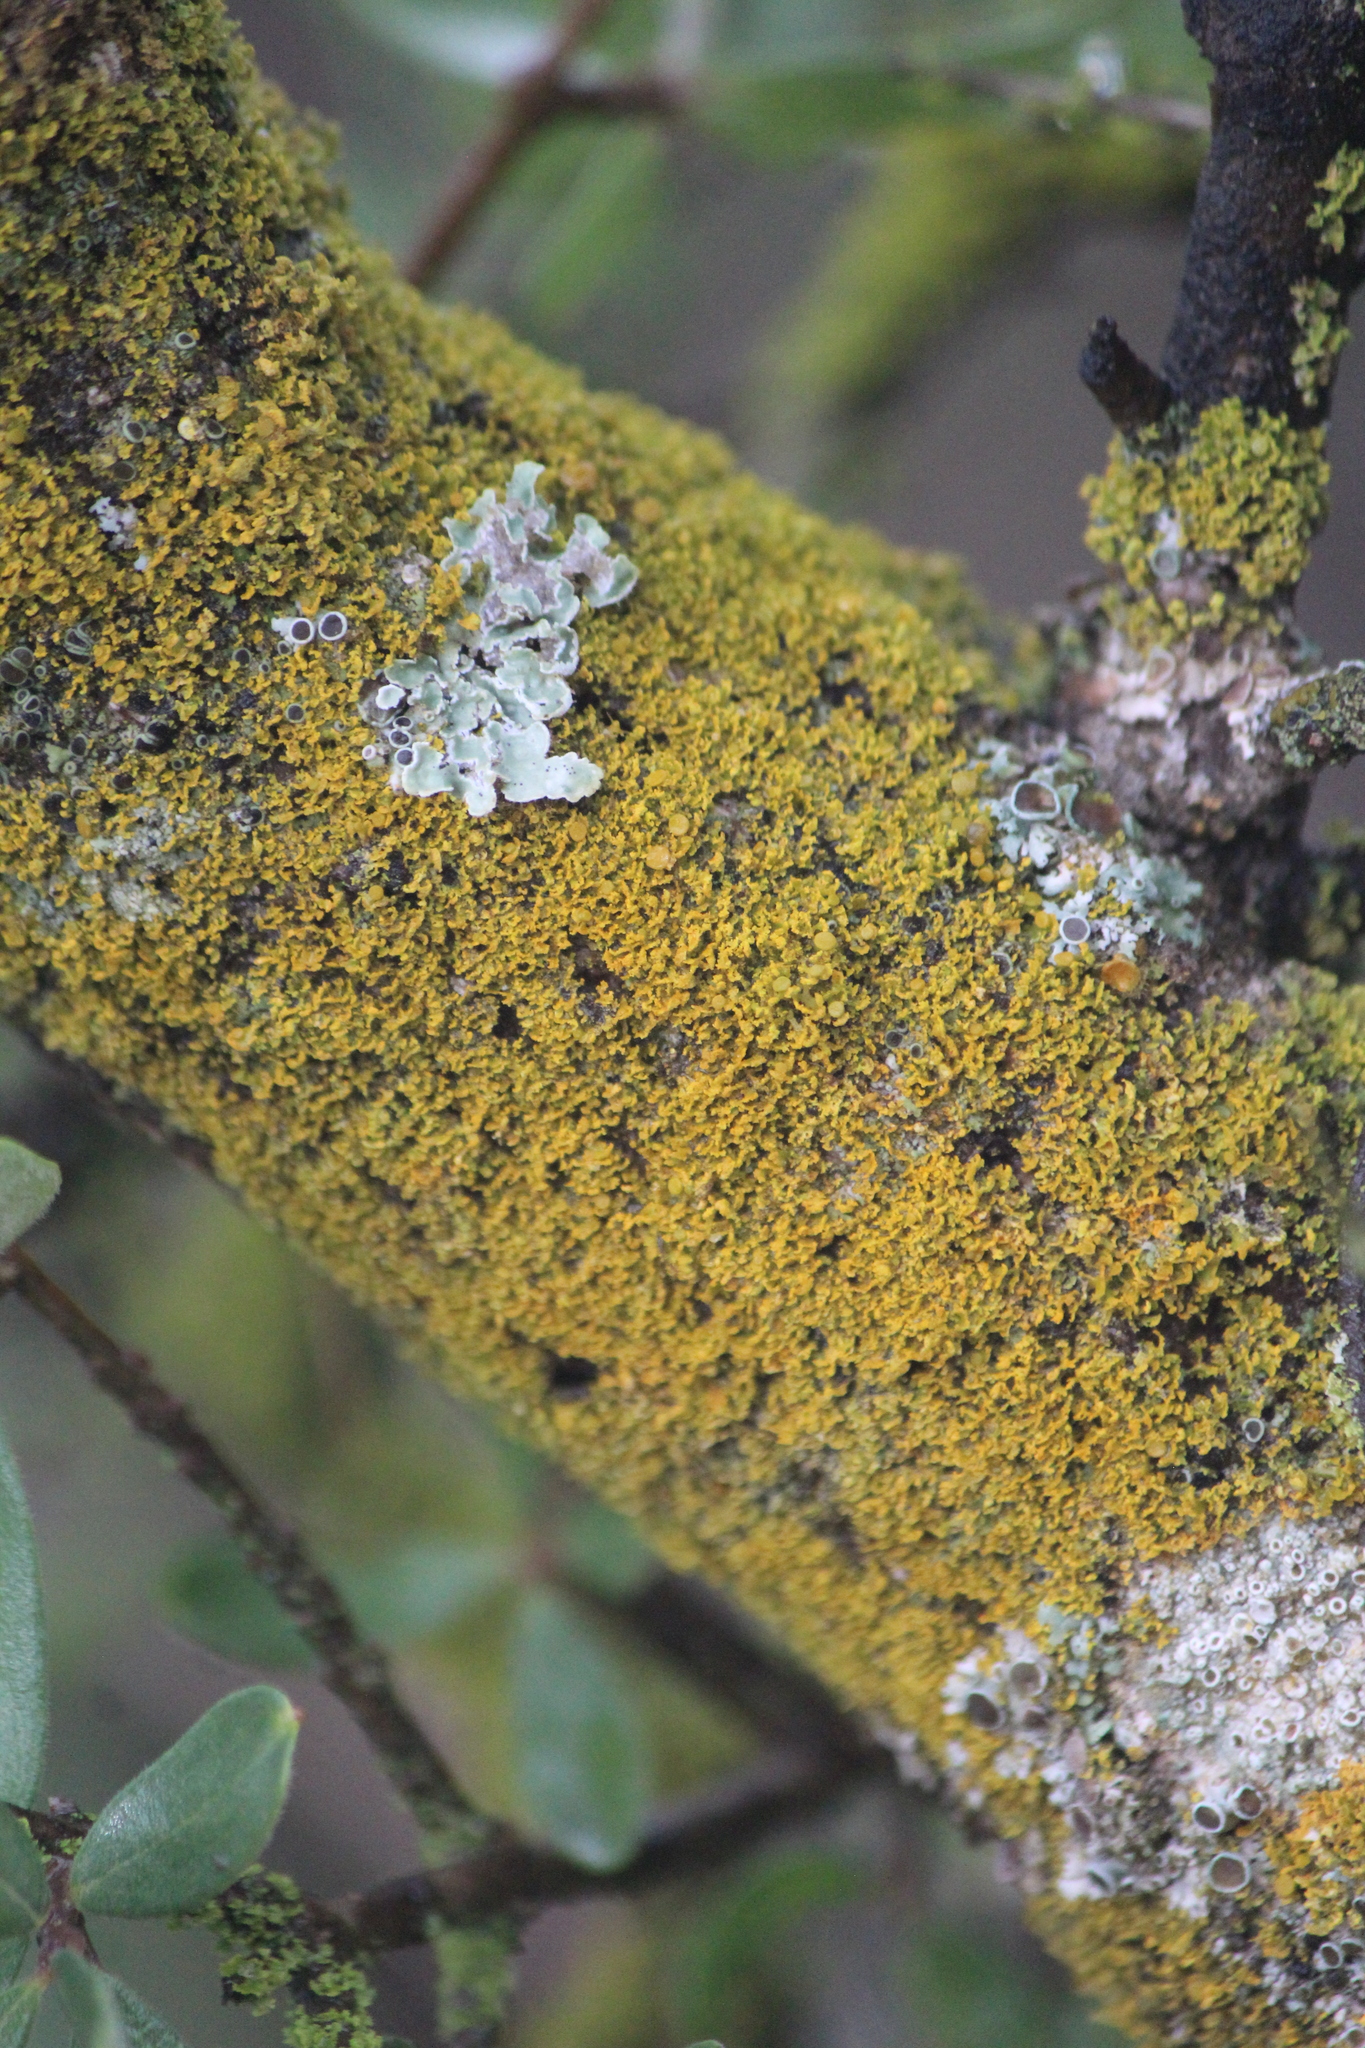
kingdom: Fungi
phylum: Ascomycota
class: Lecanoromycetes
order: Teloschistales
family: Teloschistaceae
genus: Gallowayella
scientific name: Gallowayella weberi
